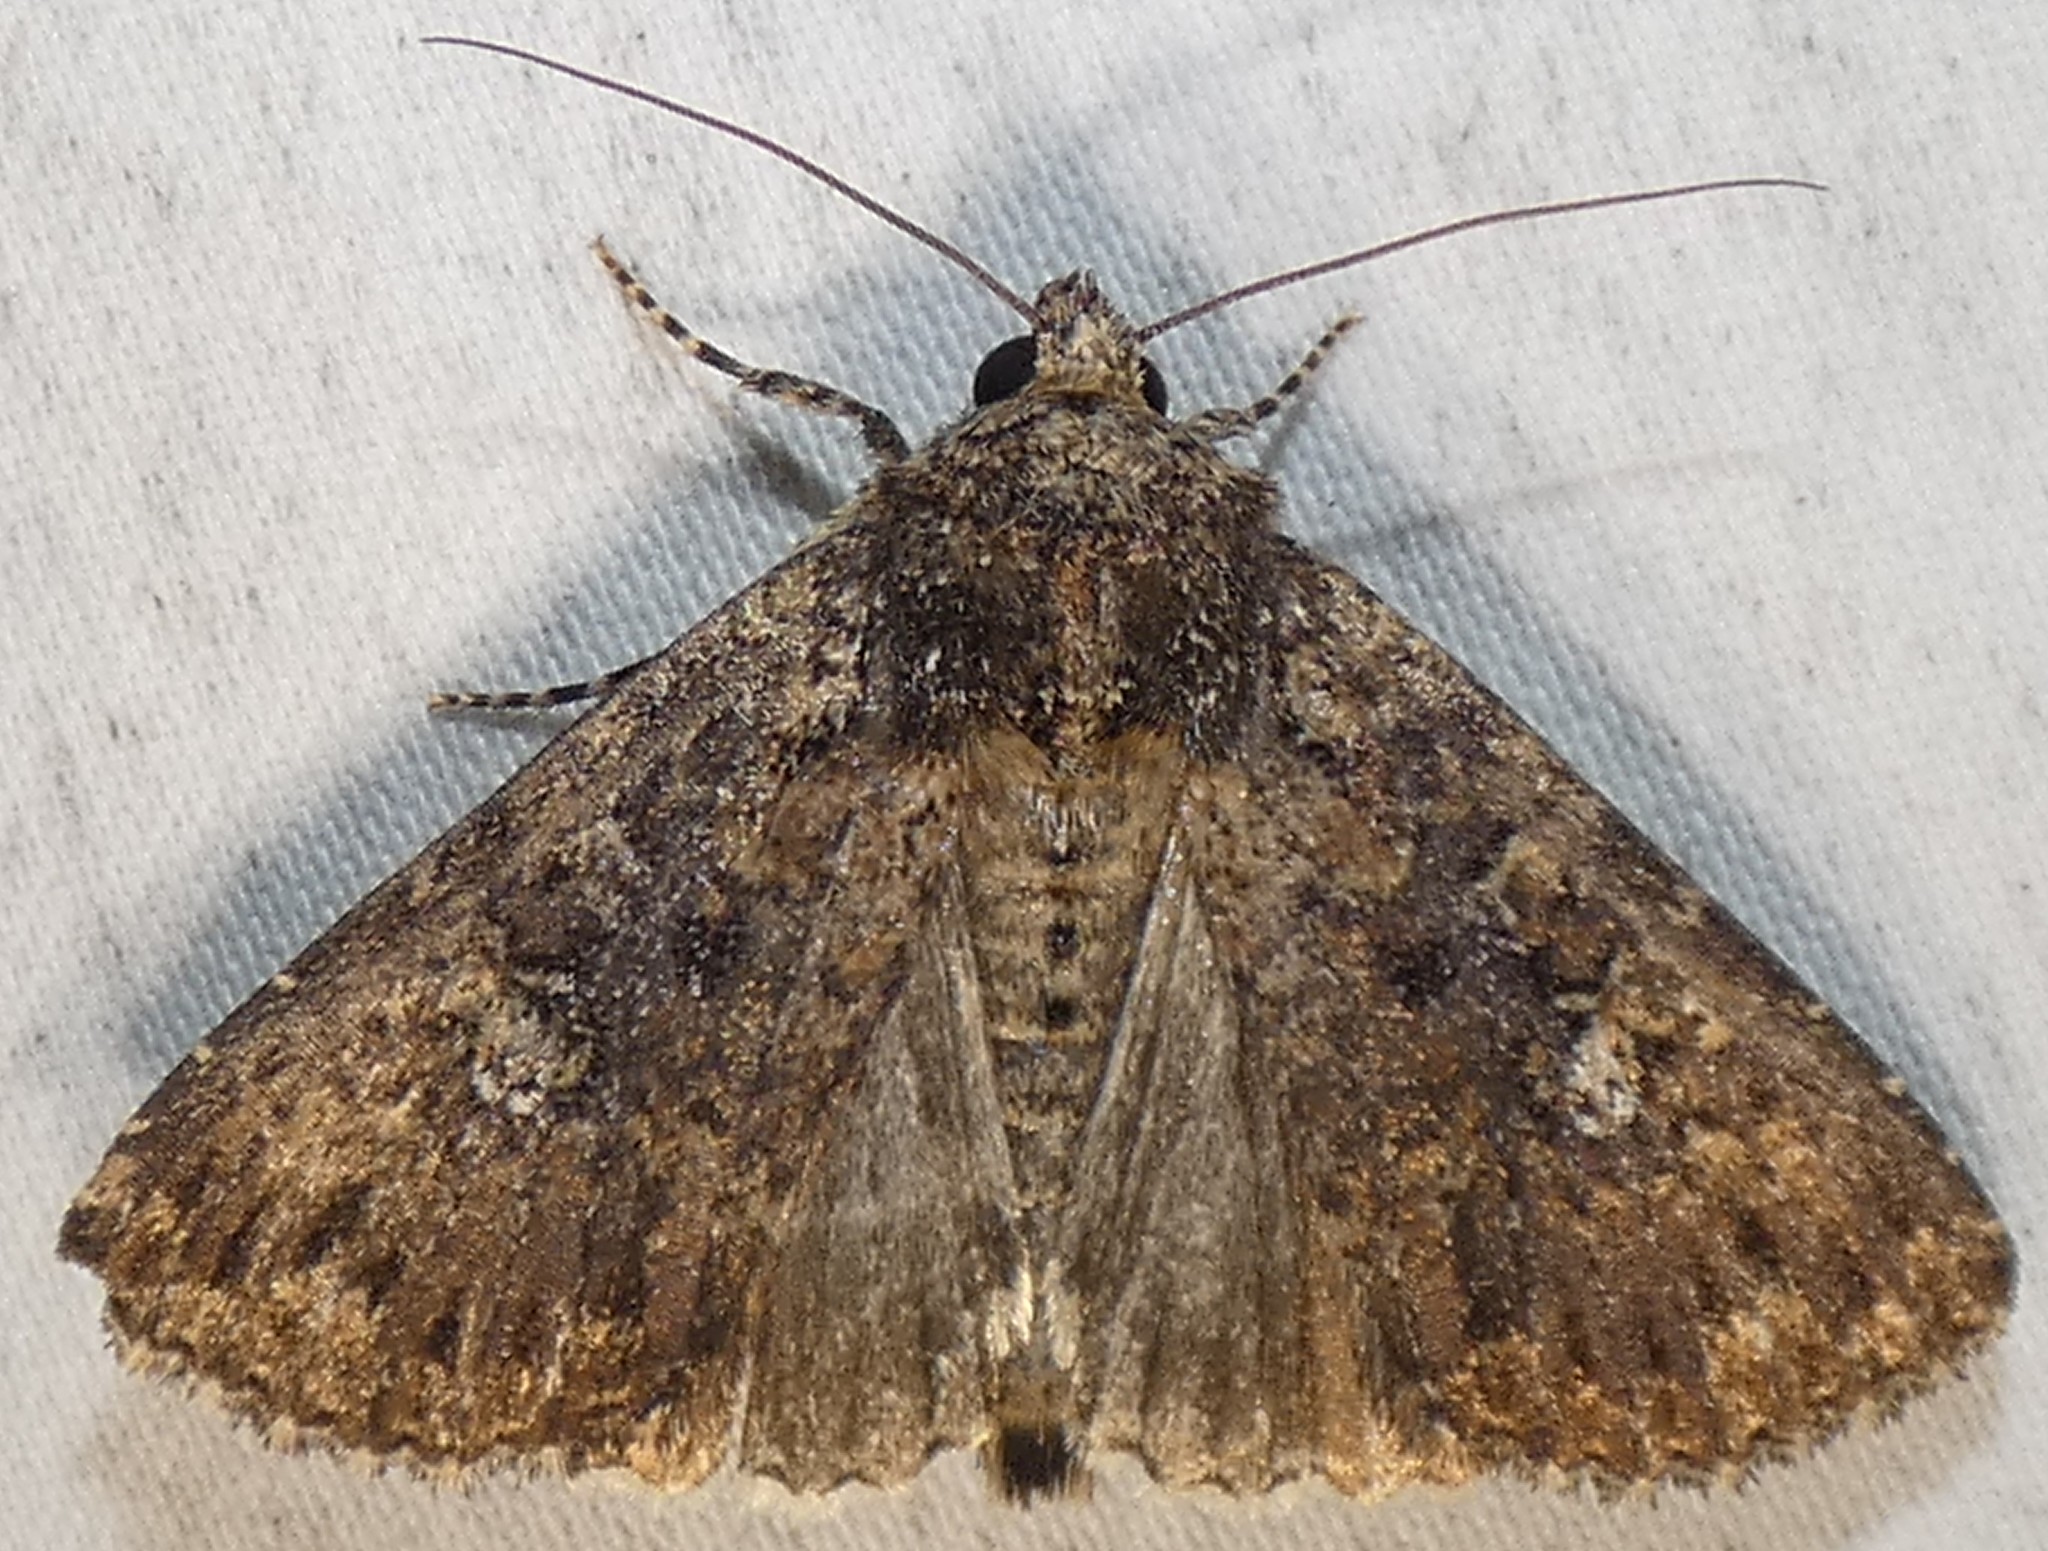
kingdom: Animalia
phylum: Arthropoda
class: Insecta
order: Lepidoptera
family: Noctuidae
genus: Condica
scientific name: Condica vecors
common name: Dusky groundling
